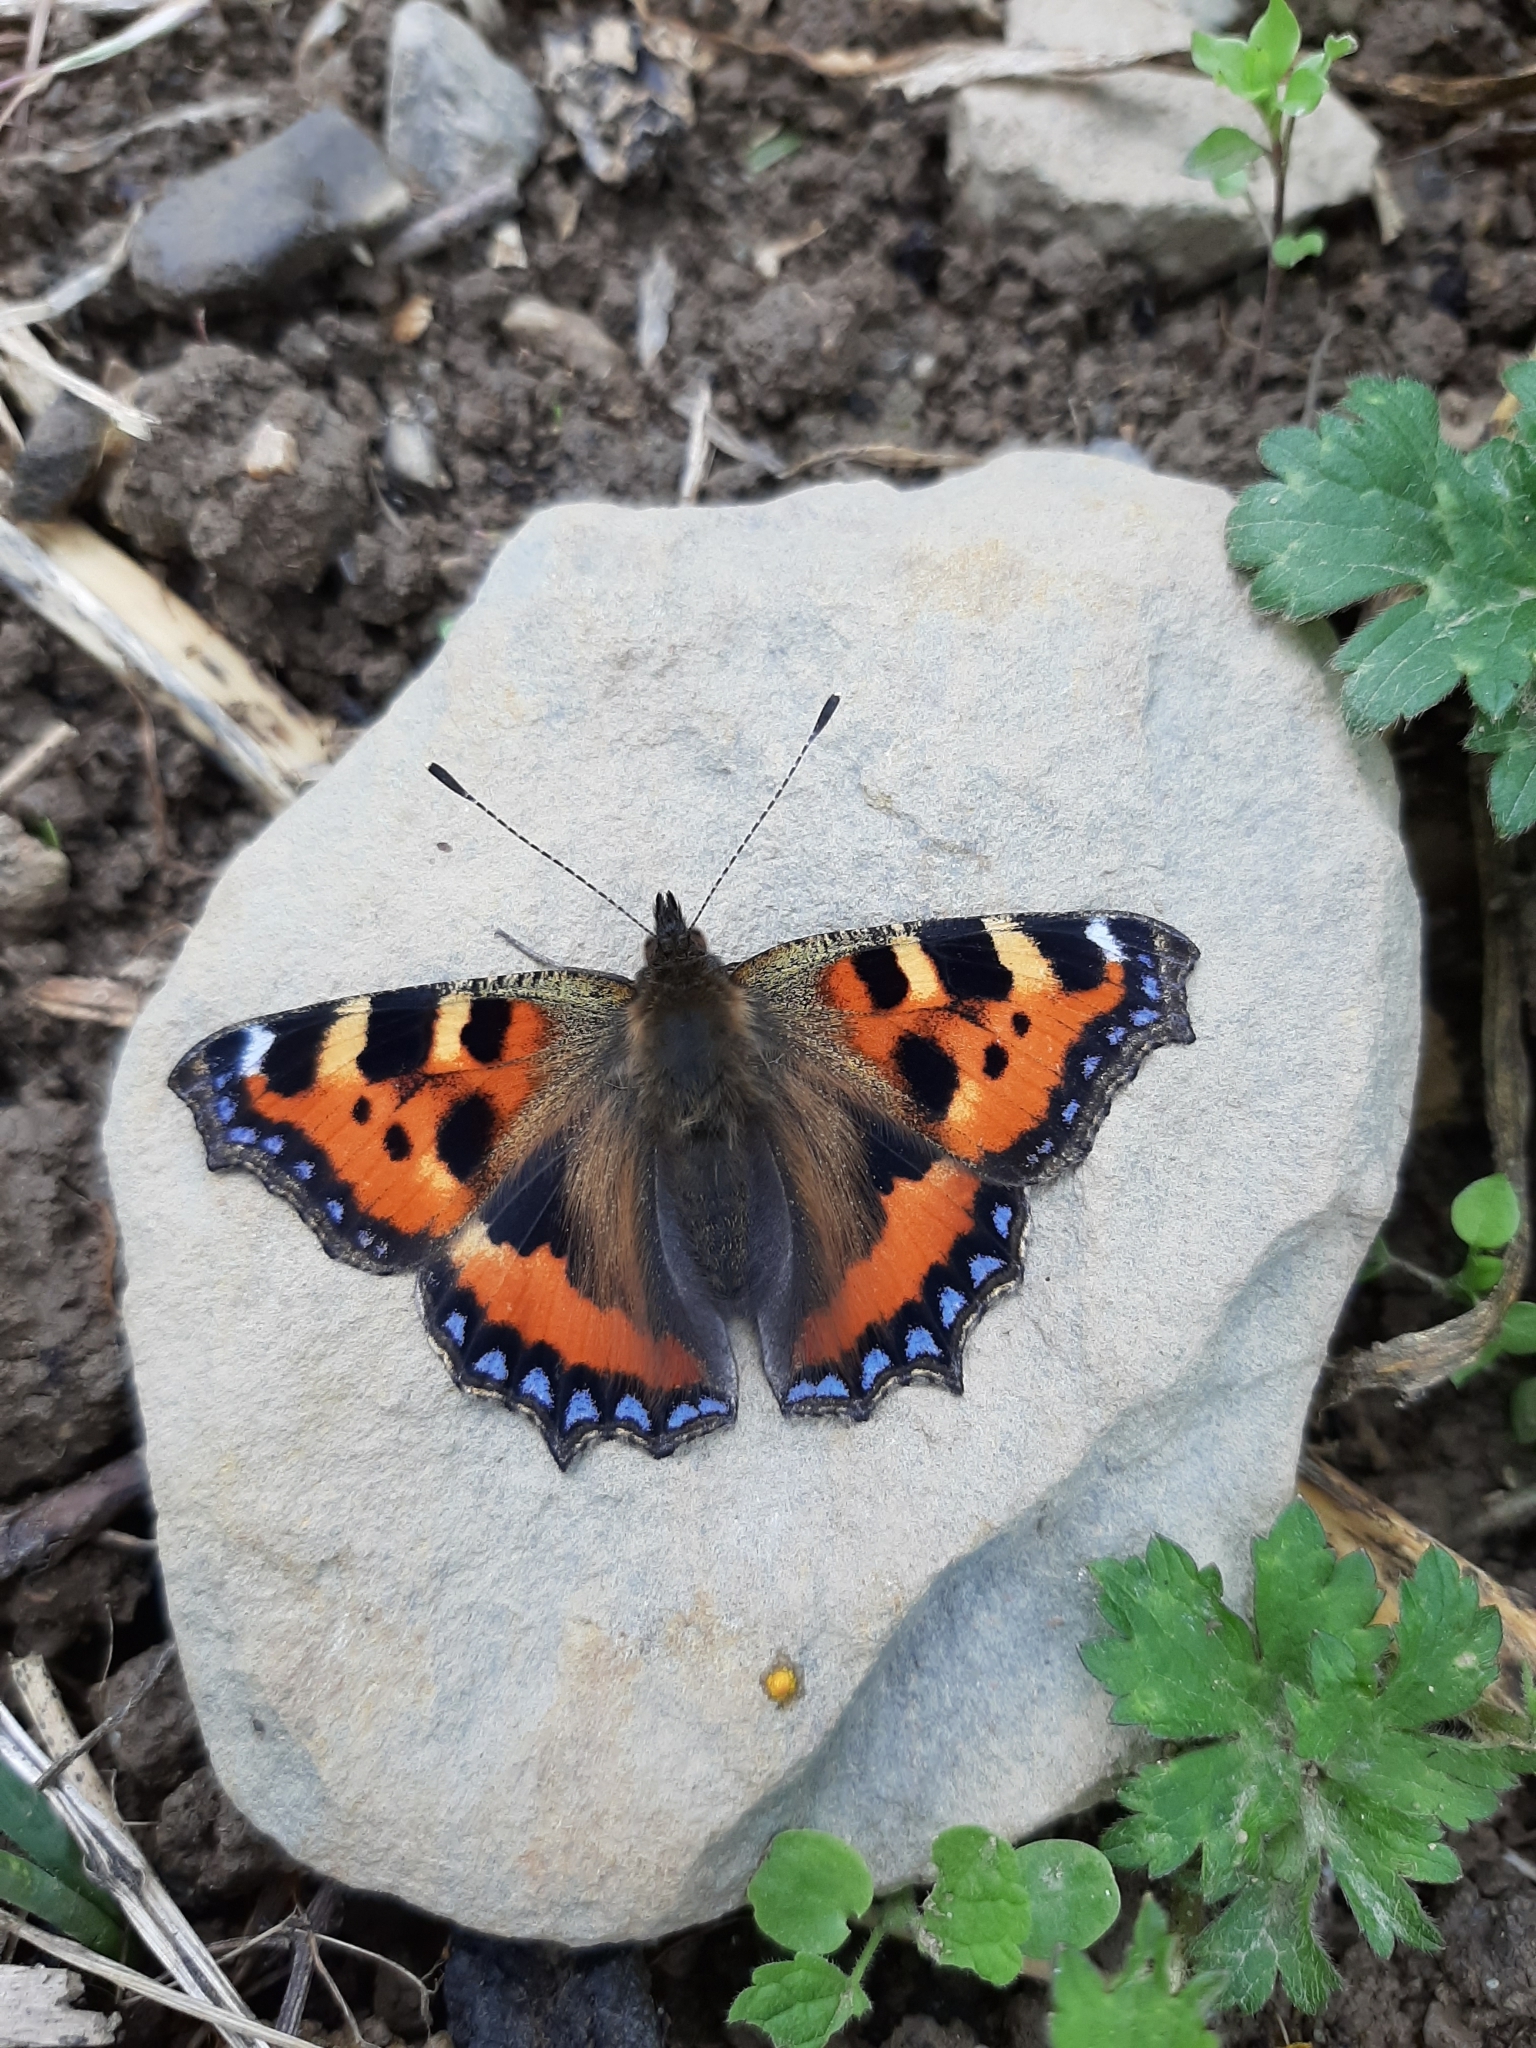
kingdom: Animalia
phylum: Arthropoda
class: Insecta
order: Lepidoptera
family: Nymphalidae
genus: Aglais
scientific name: Aglais urticae
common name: Small tortoiseshell
